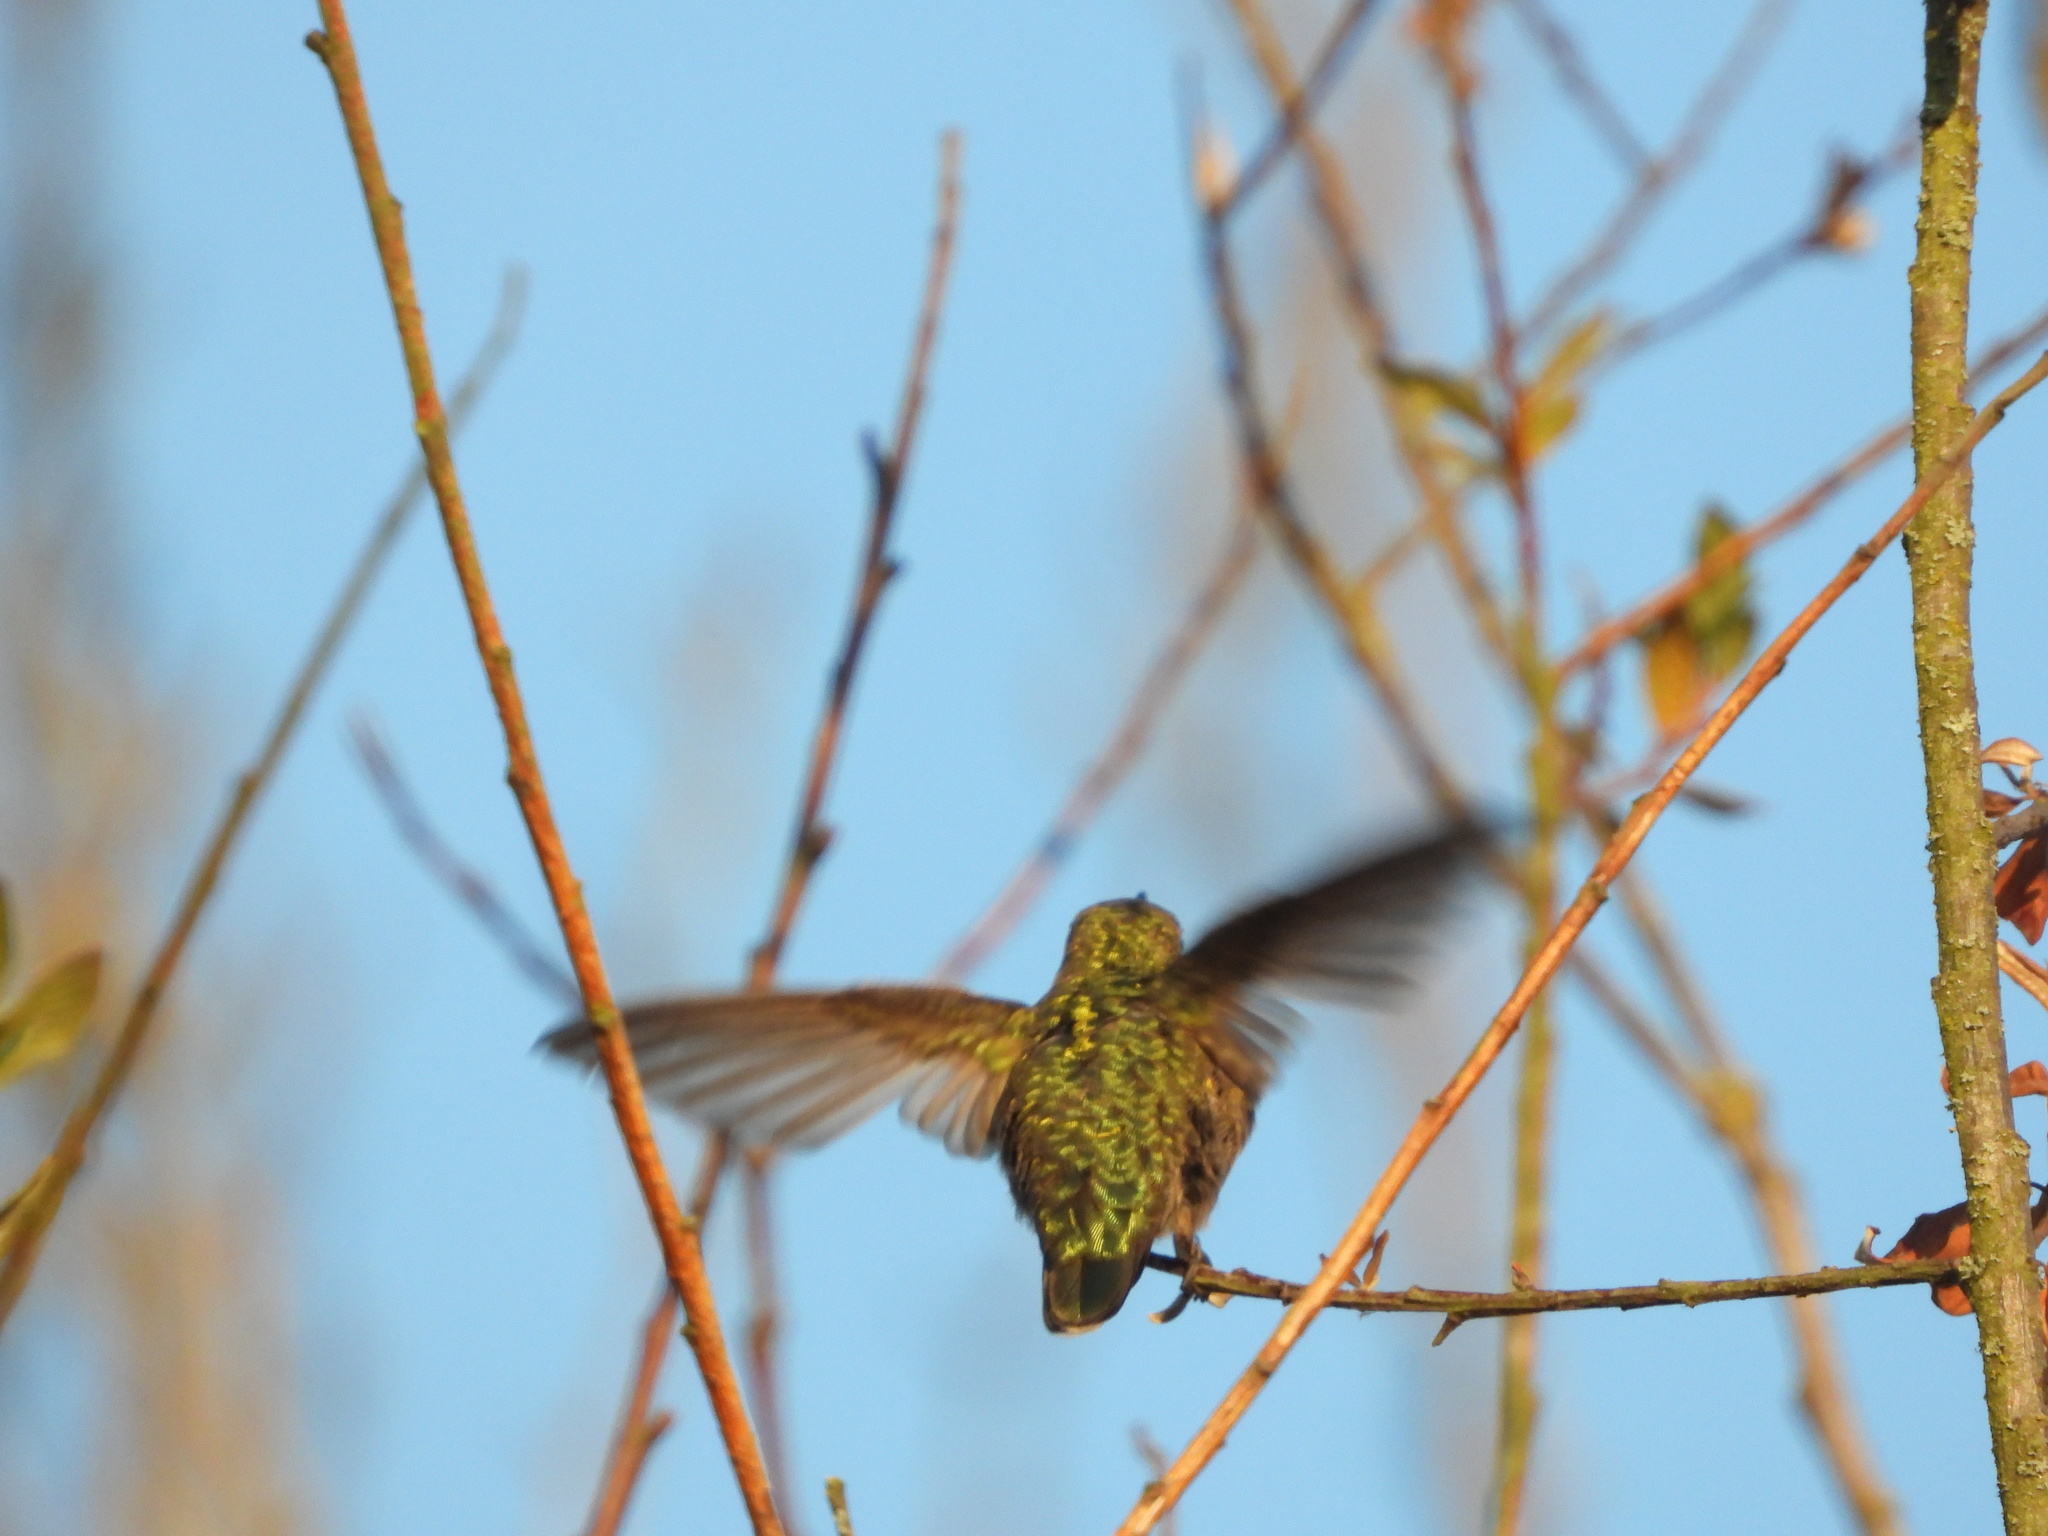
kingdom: Animalia
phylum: Chordata
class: Aves
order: Apodiformes
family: Trochilidae
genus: Calypte
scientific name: Calypte anna
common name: Anna's hummingbird
